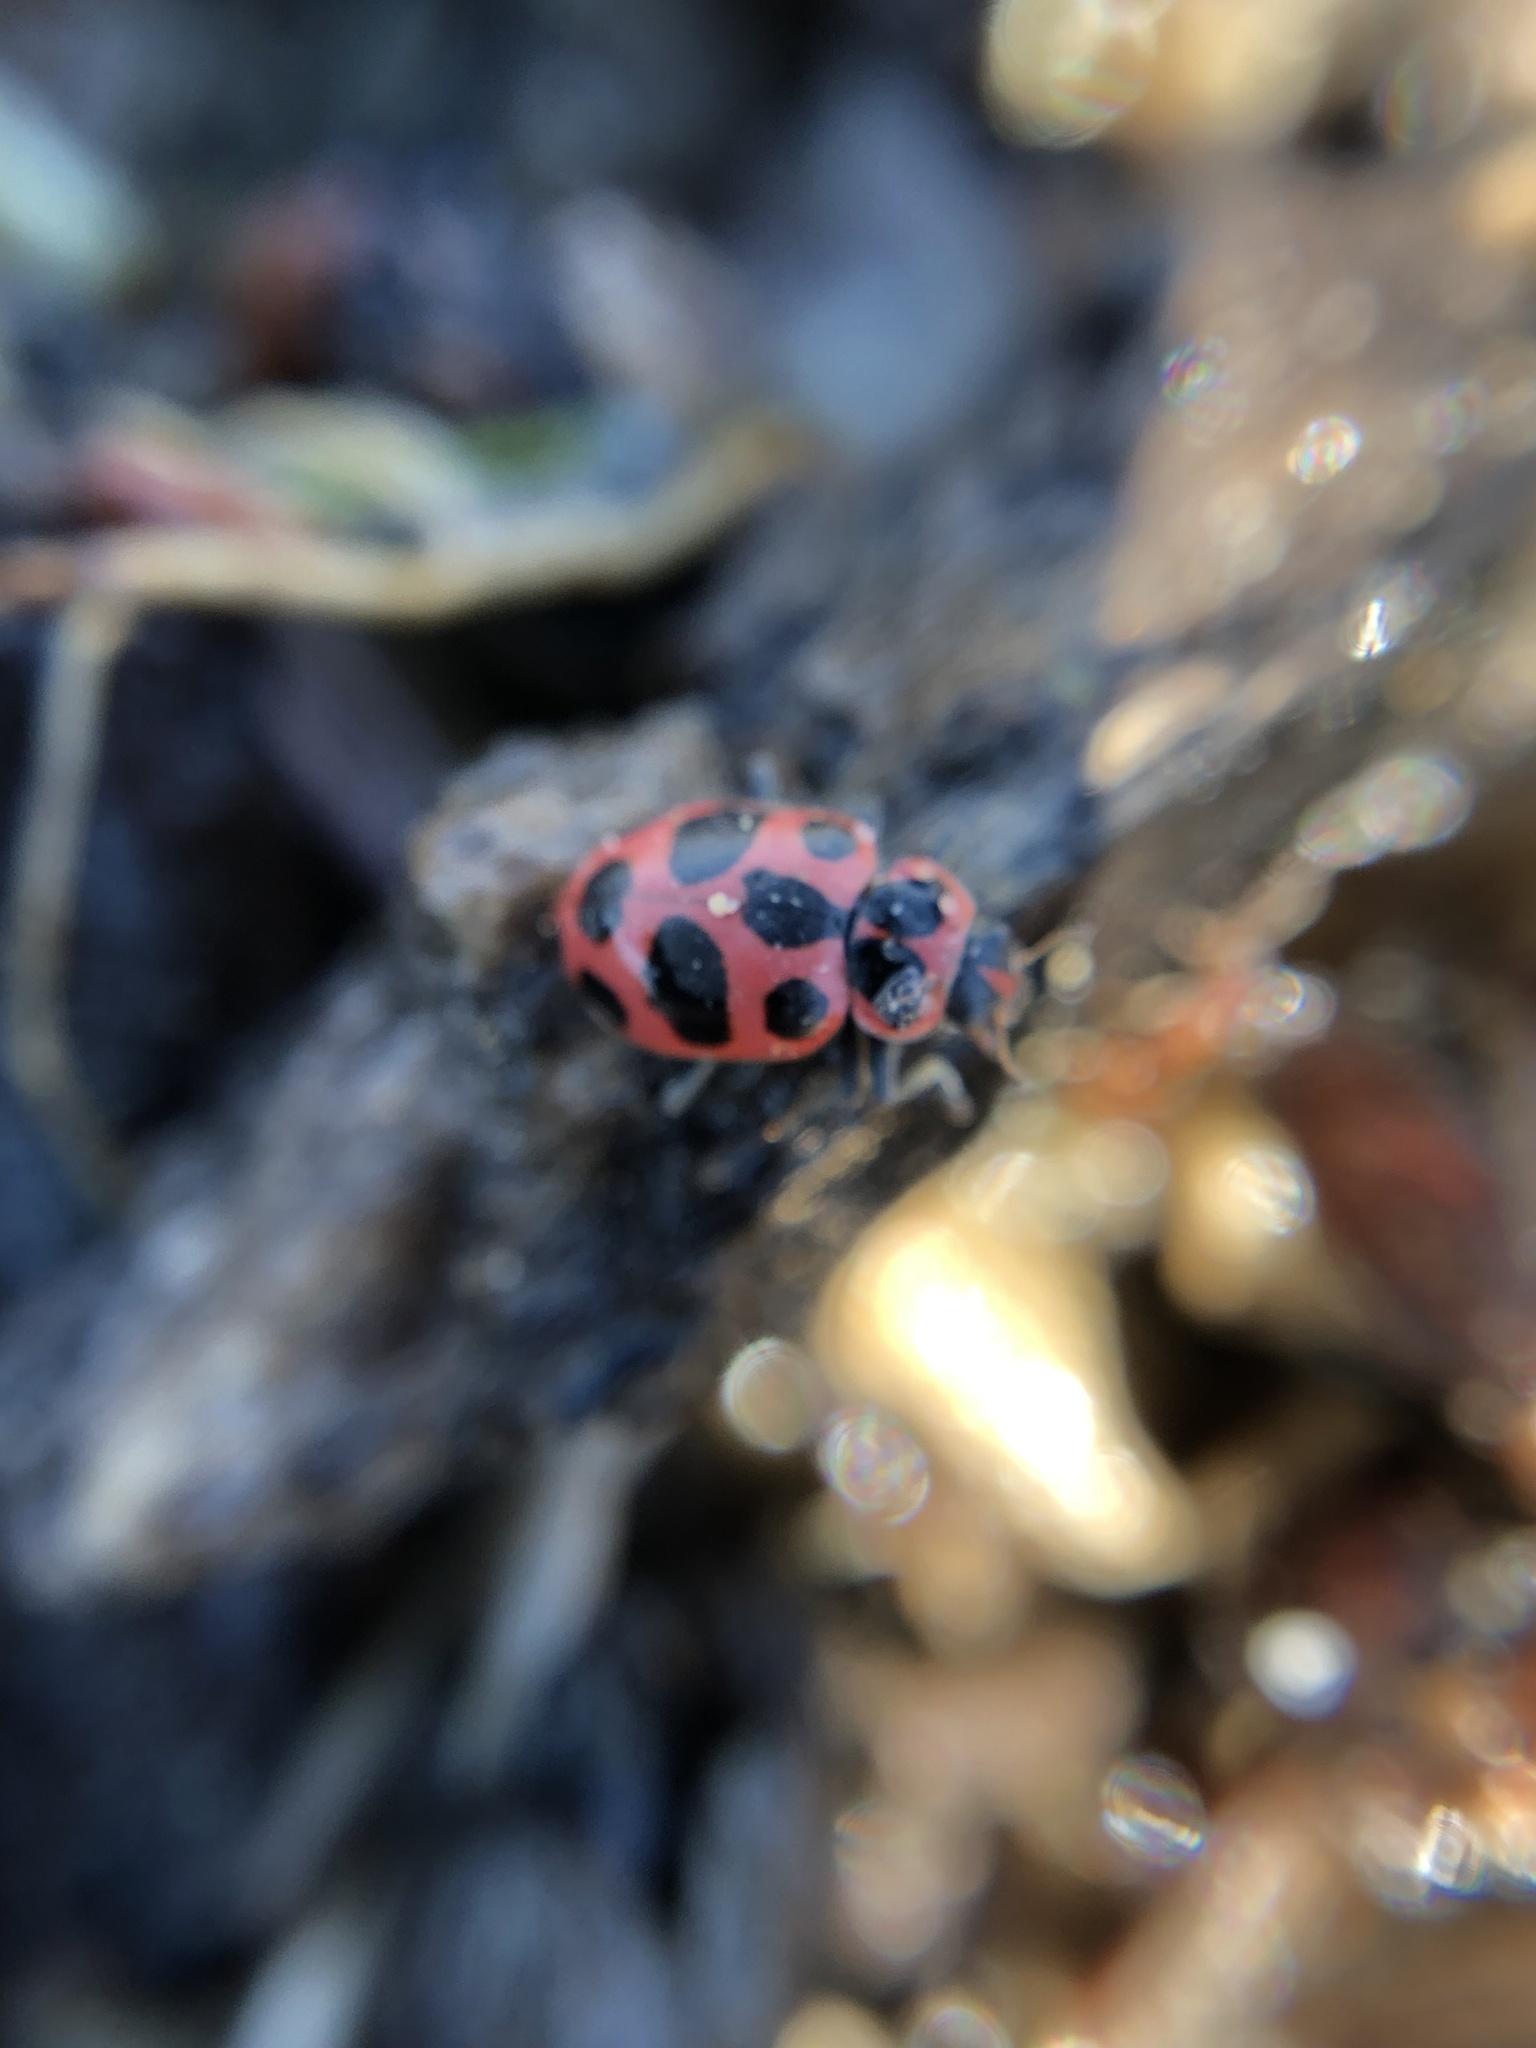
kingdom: Animalia
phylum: Arthropoda
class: Insecta
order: Coleoptera
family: Coccinellidae
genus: Coleomegilla
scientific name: Coleomegilla maculata
